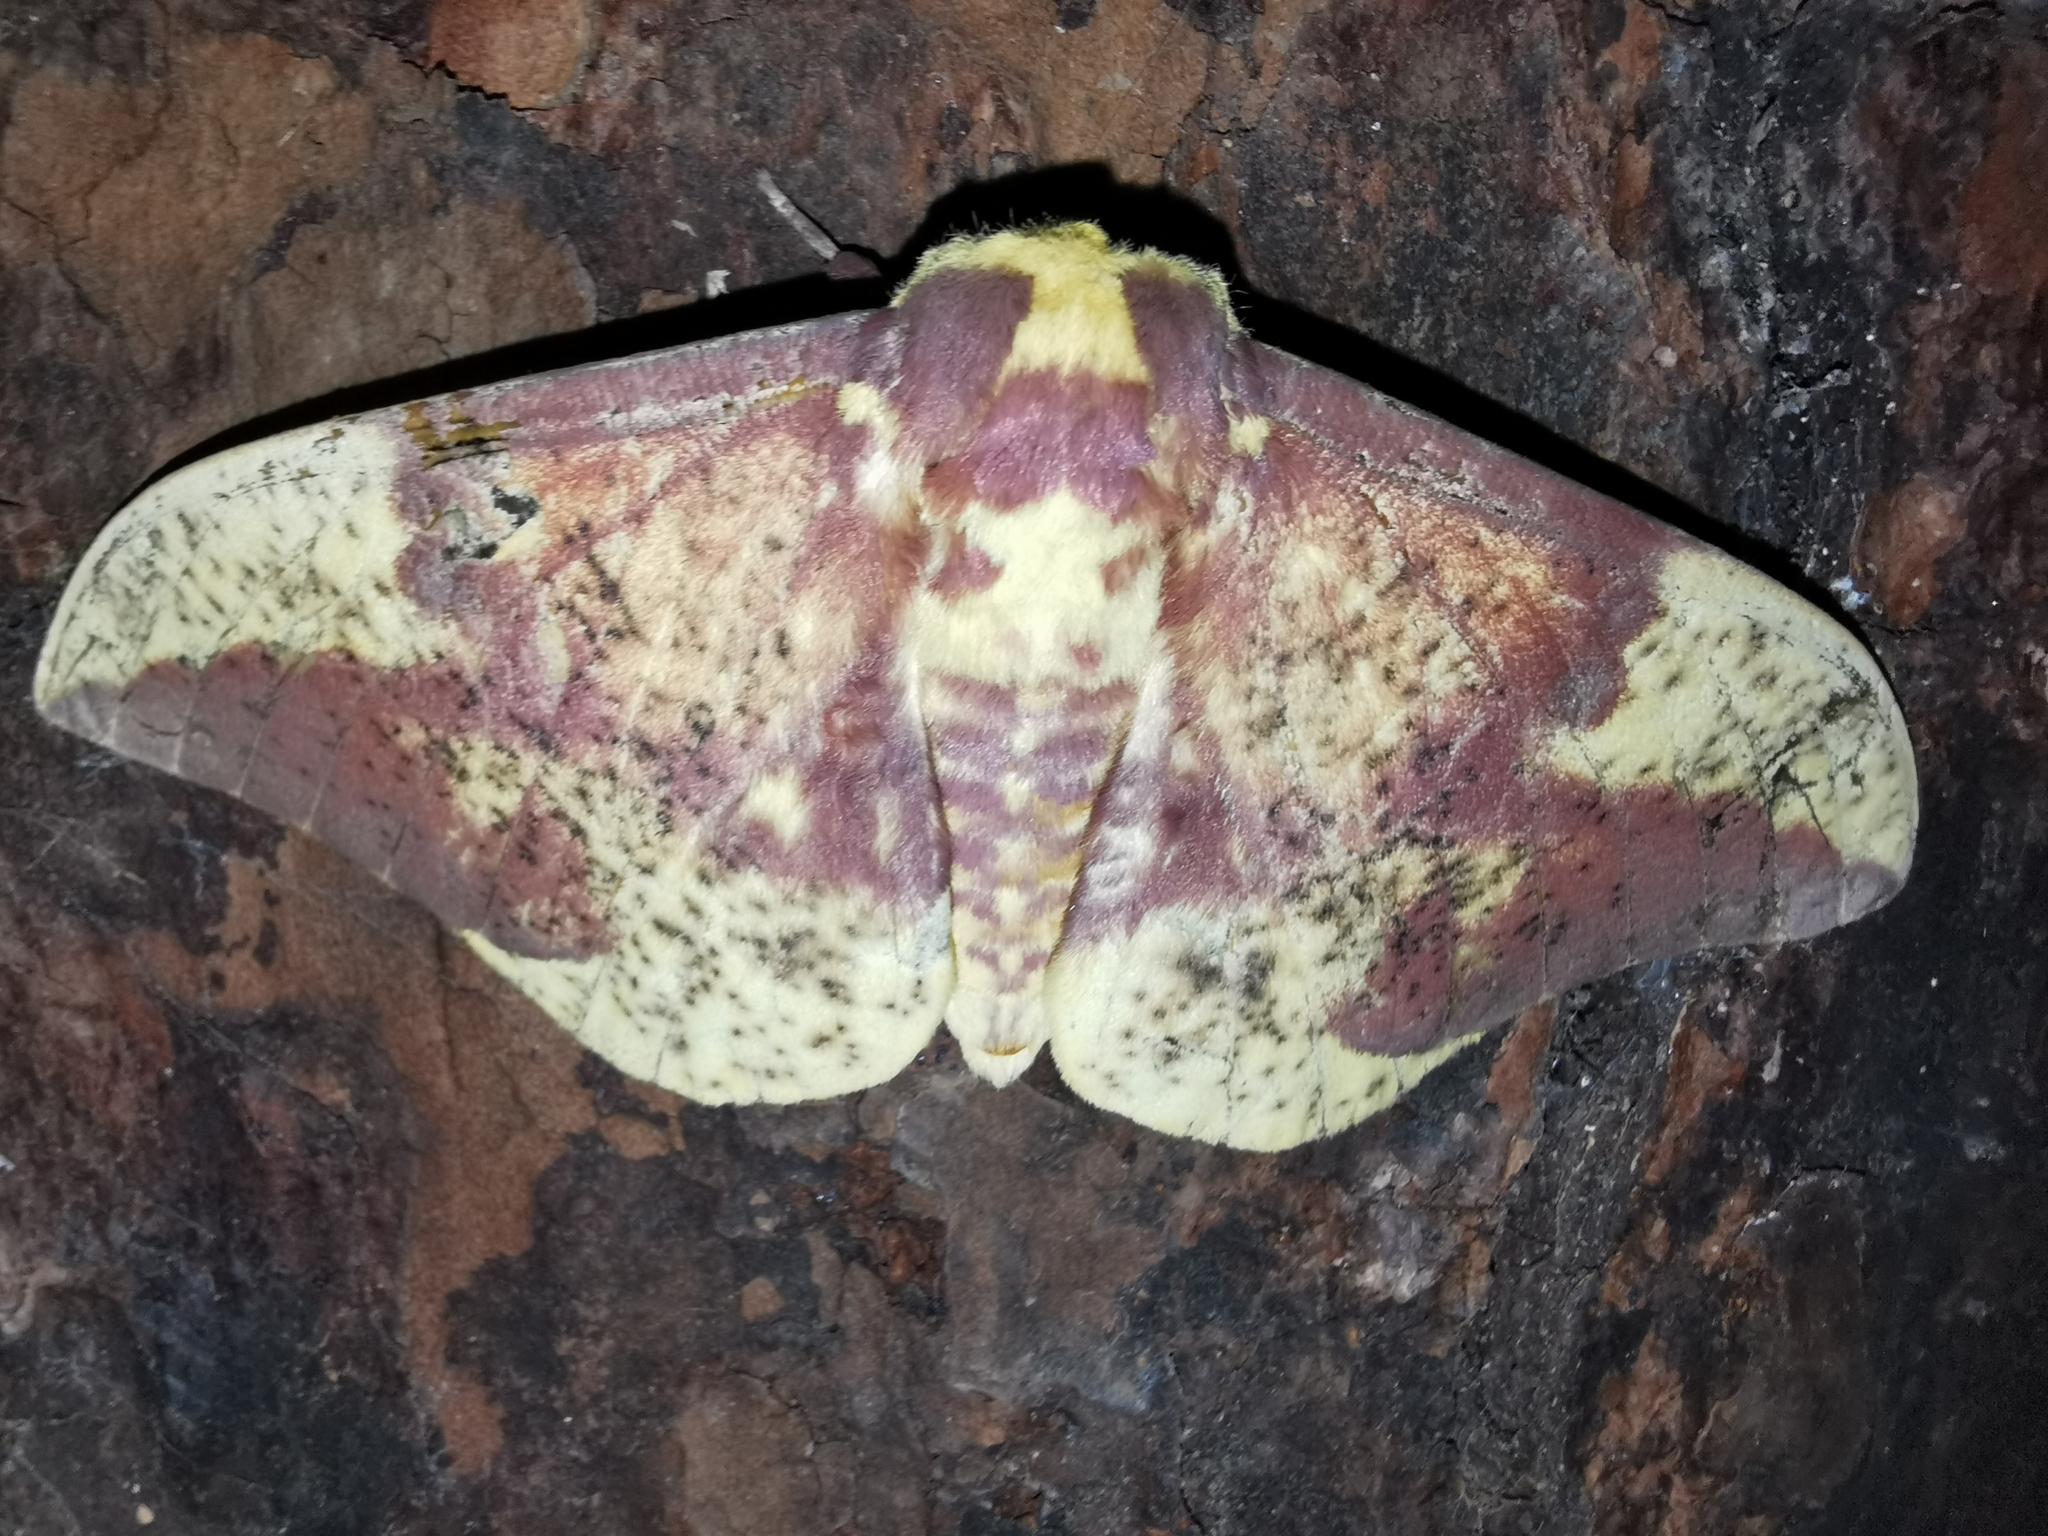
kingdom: Animalia
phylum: Arthropoda
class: Insecta
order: Lepidoptera
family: Saturniidae
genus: Eacles
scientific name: Eacles imperialis
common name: Imperial moth
